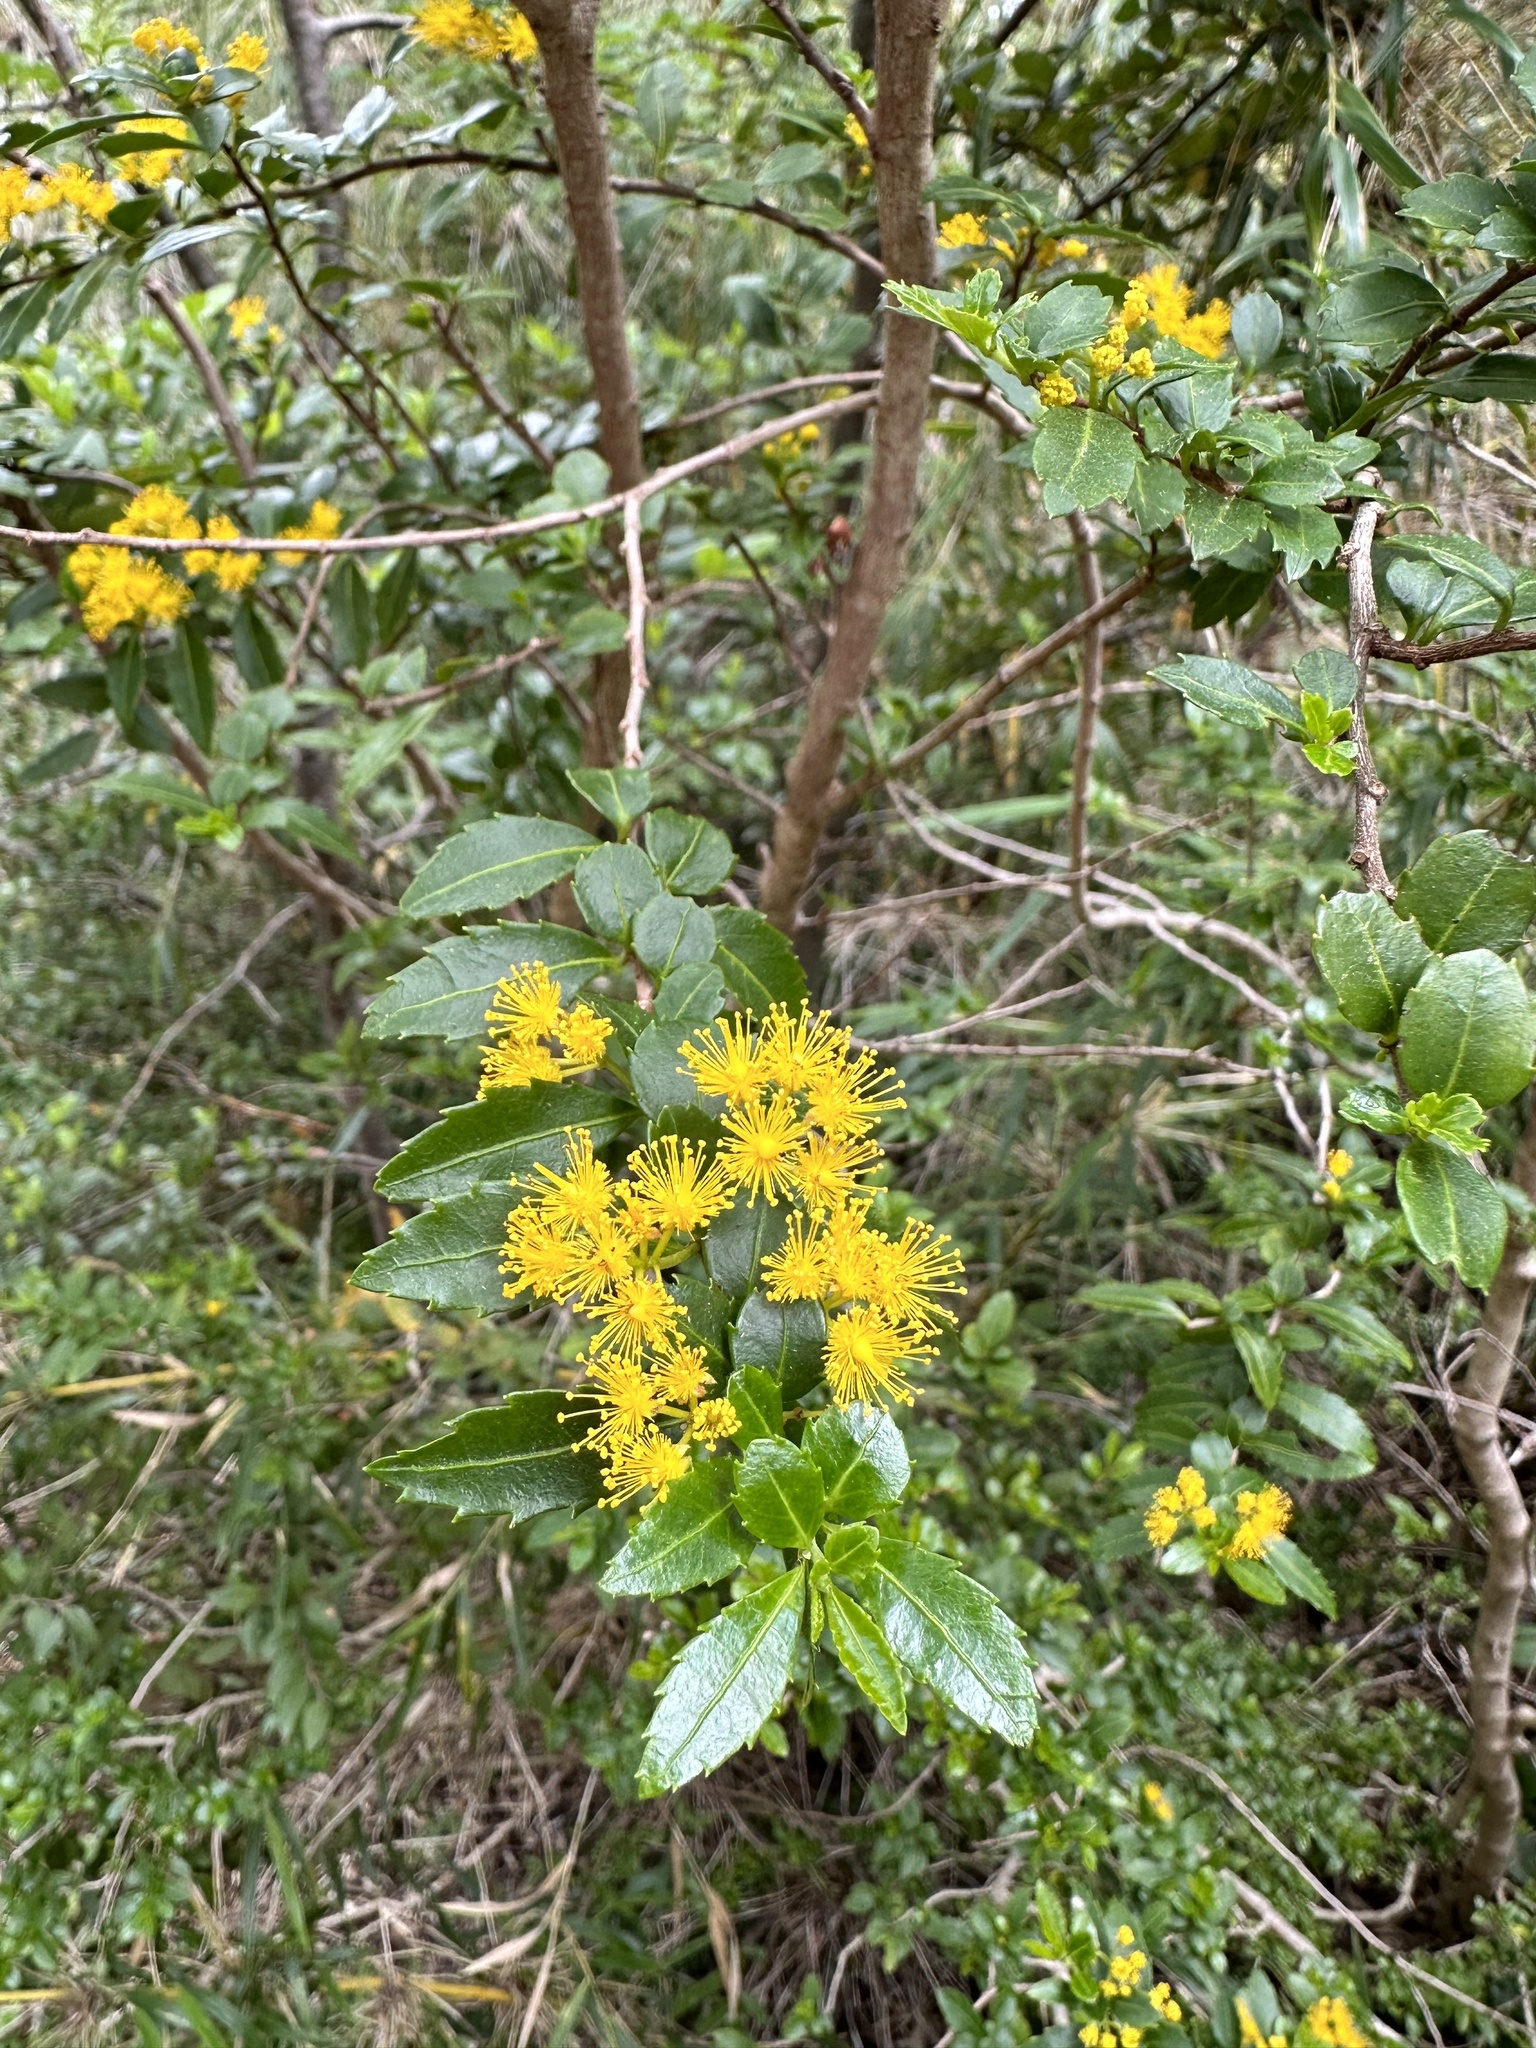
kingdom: Plantae
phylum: Tracheophyta
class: Magnoliopsida
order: Malpighiales
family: Salicaceae
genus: Azara
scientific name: Azara serrata
